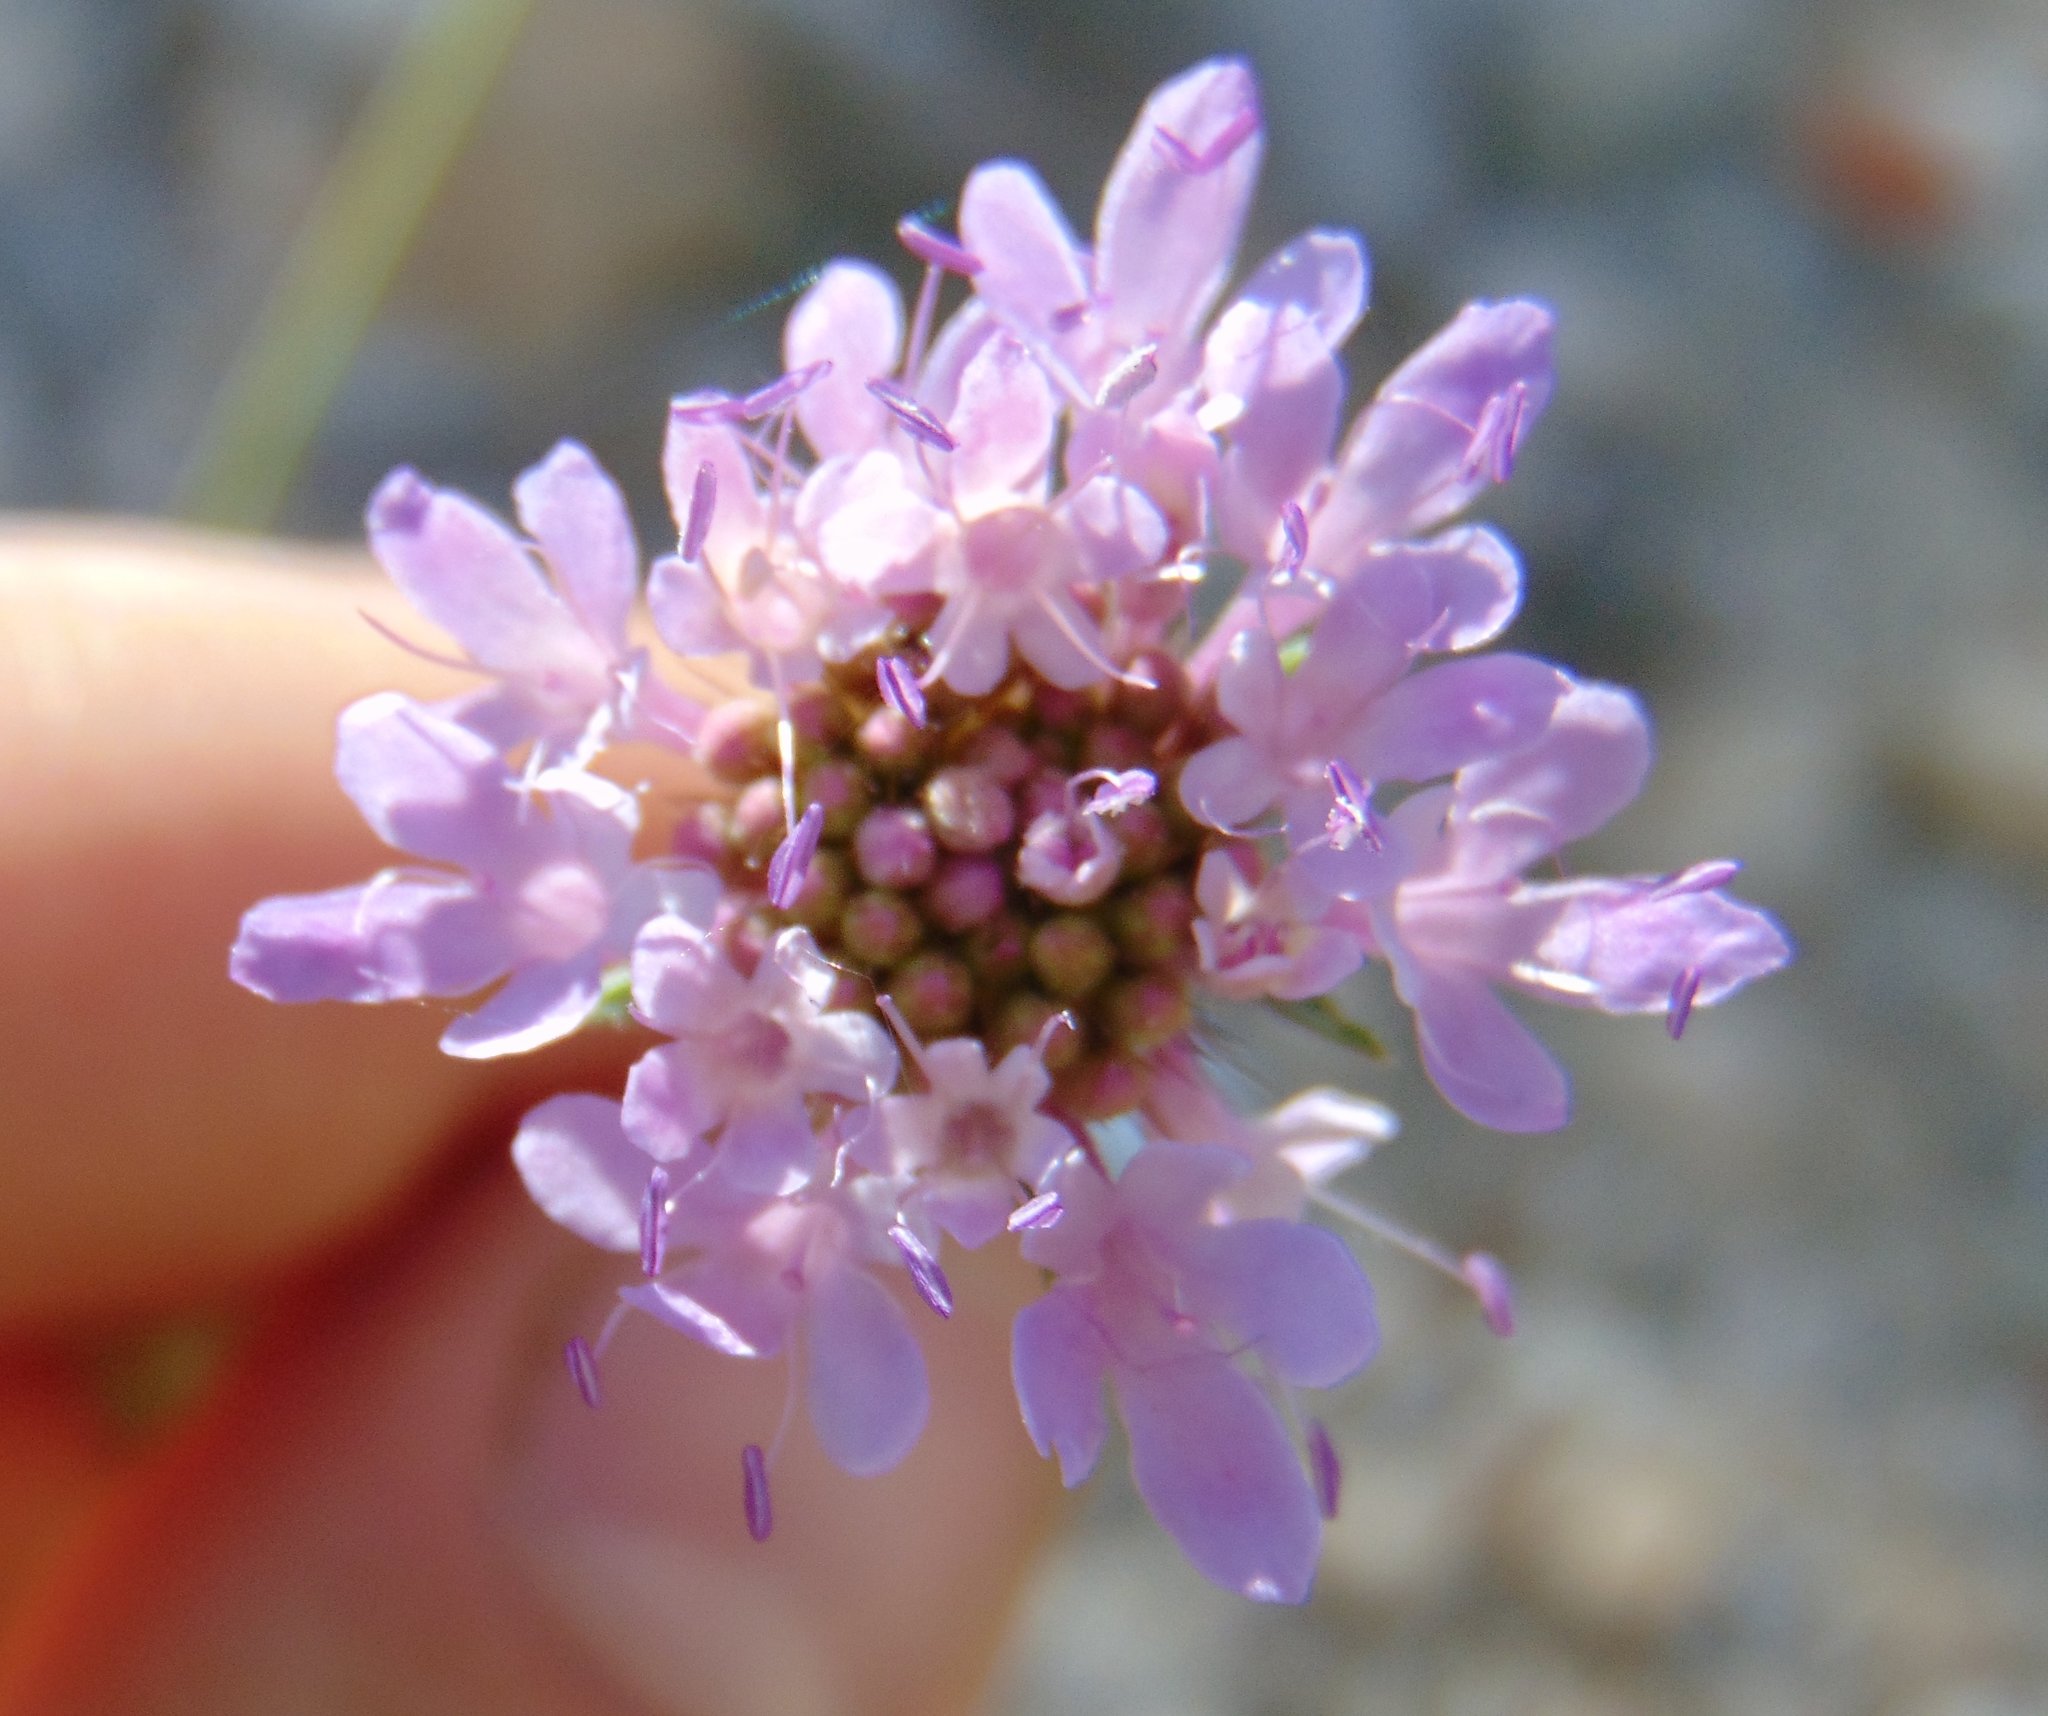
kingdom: Plantae
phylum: Tracheophyta
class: Magnoliopsida
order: Dipsacales
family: Caprifoliaceae
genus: Sixalix
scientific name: Sixalix atropurpurea
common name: Sweet scabious
